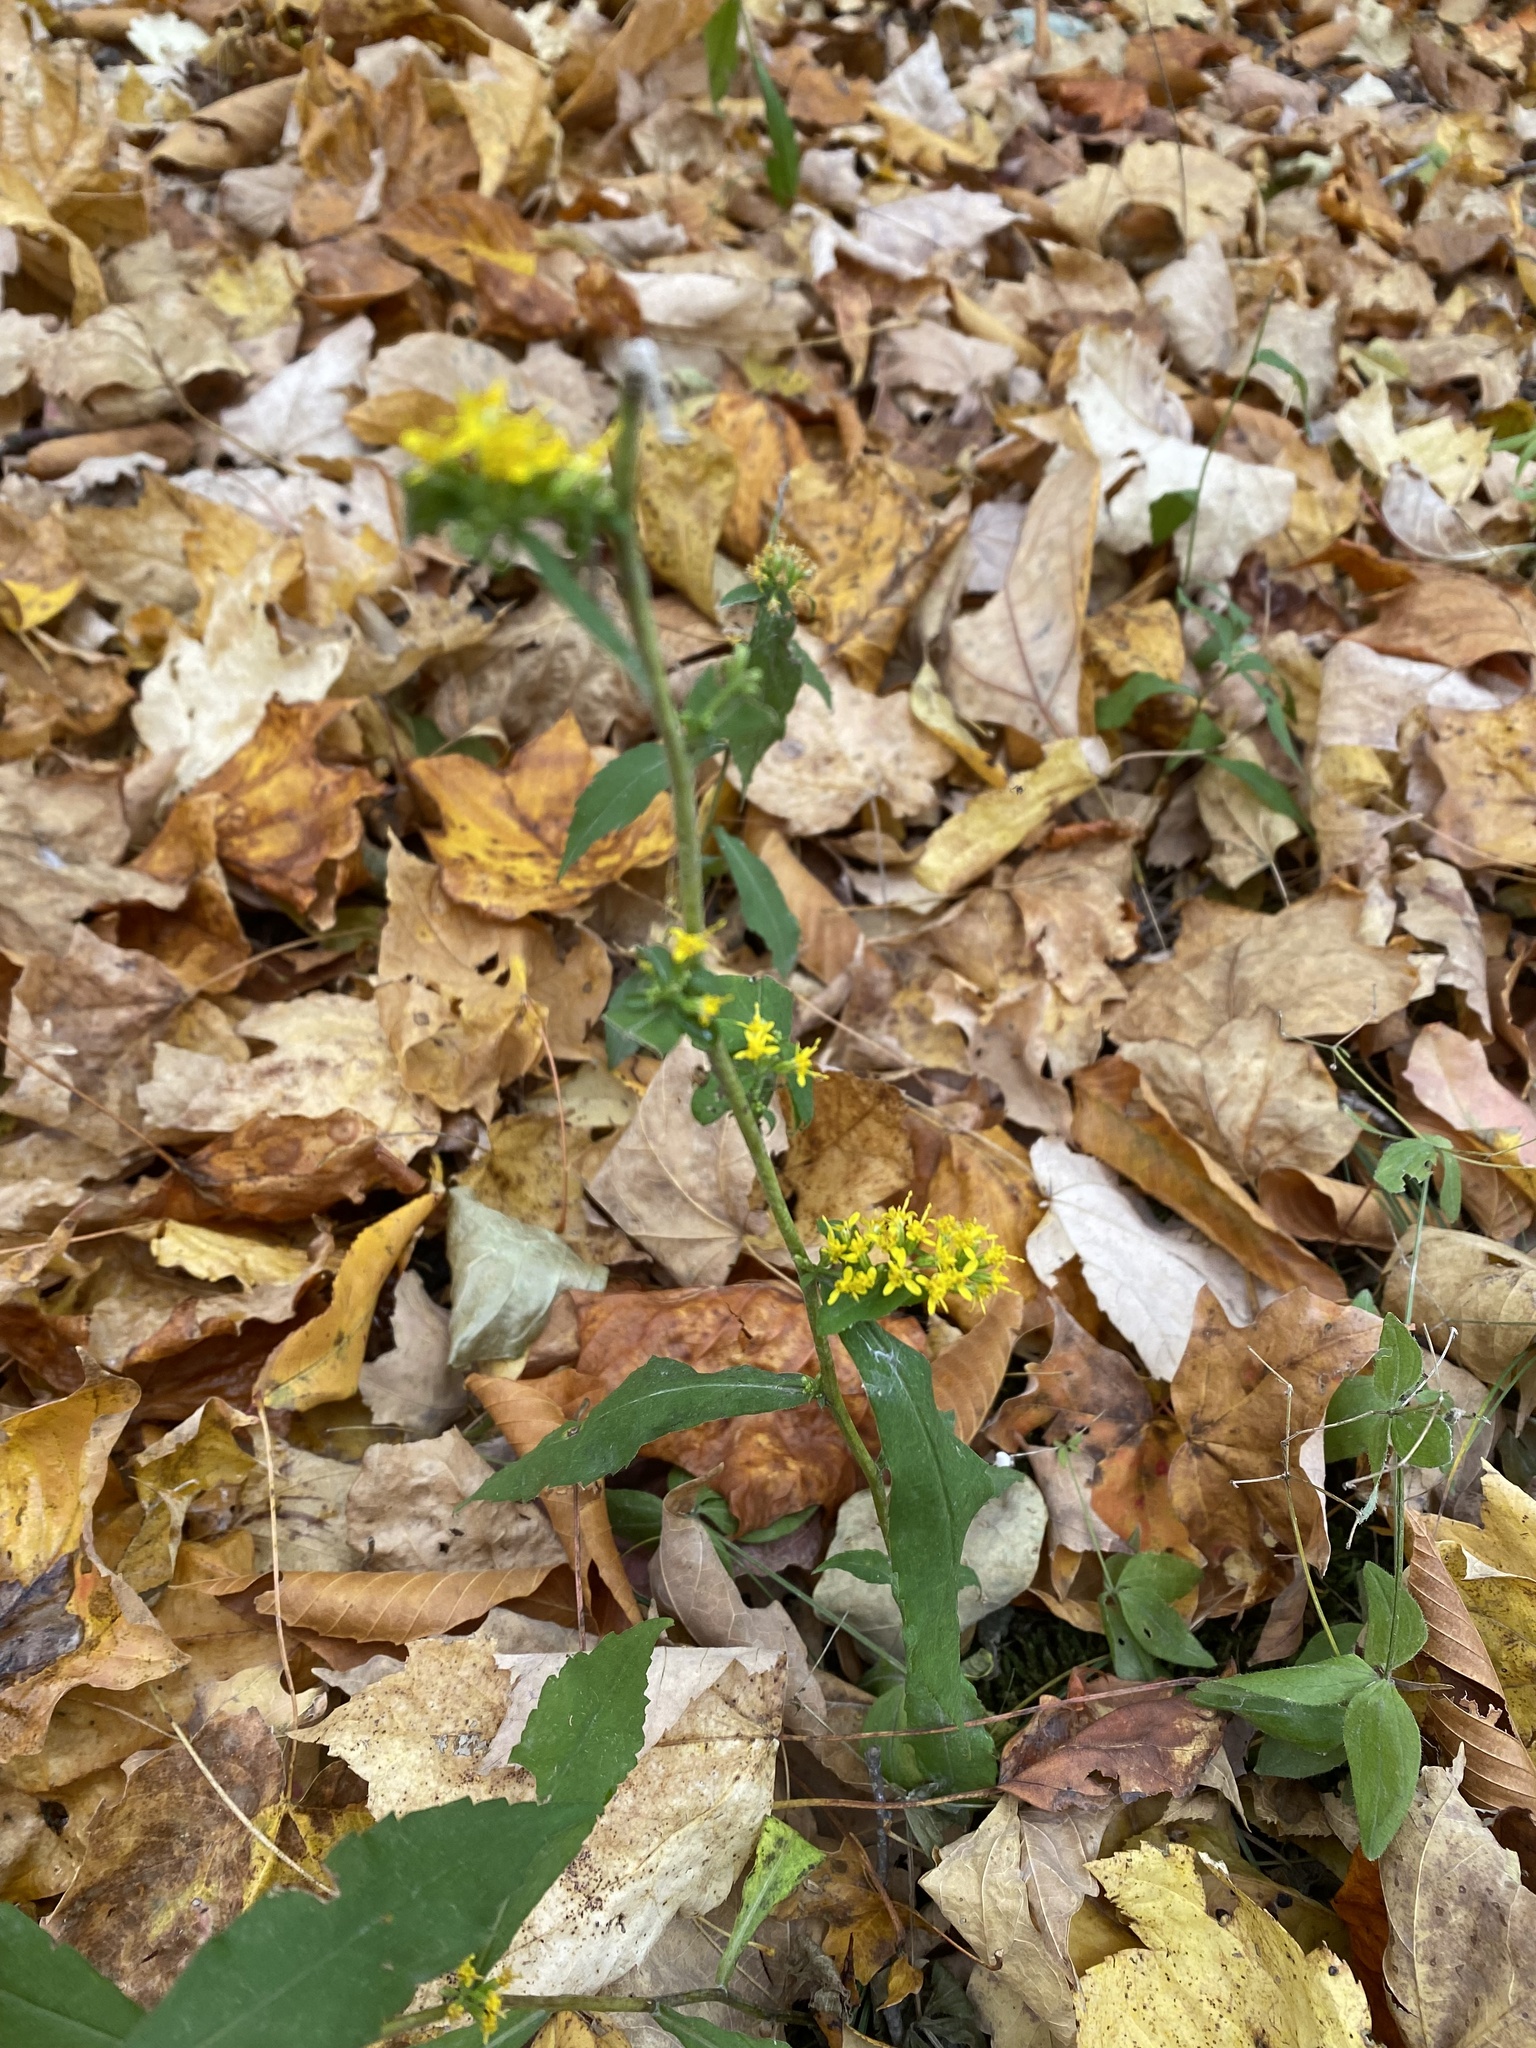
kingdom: Plantae
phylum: Tracheophyta
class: Magnoliopsida
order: Asterales
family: Asteraceae
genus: Solidago
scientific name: Solidago caesia
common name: Woodland goldenrod
